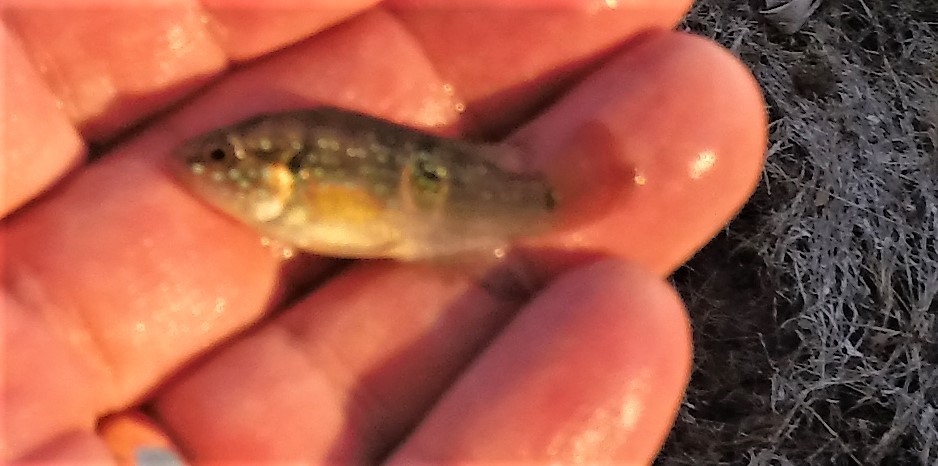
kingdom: Animalia
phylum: Chordata
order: Perciformes
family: Cichlidae
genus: Rubricatochromis
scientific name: Rubricatochromis
